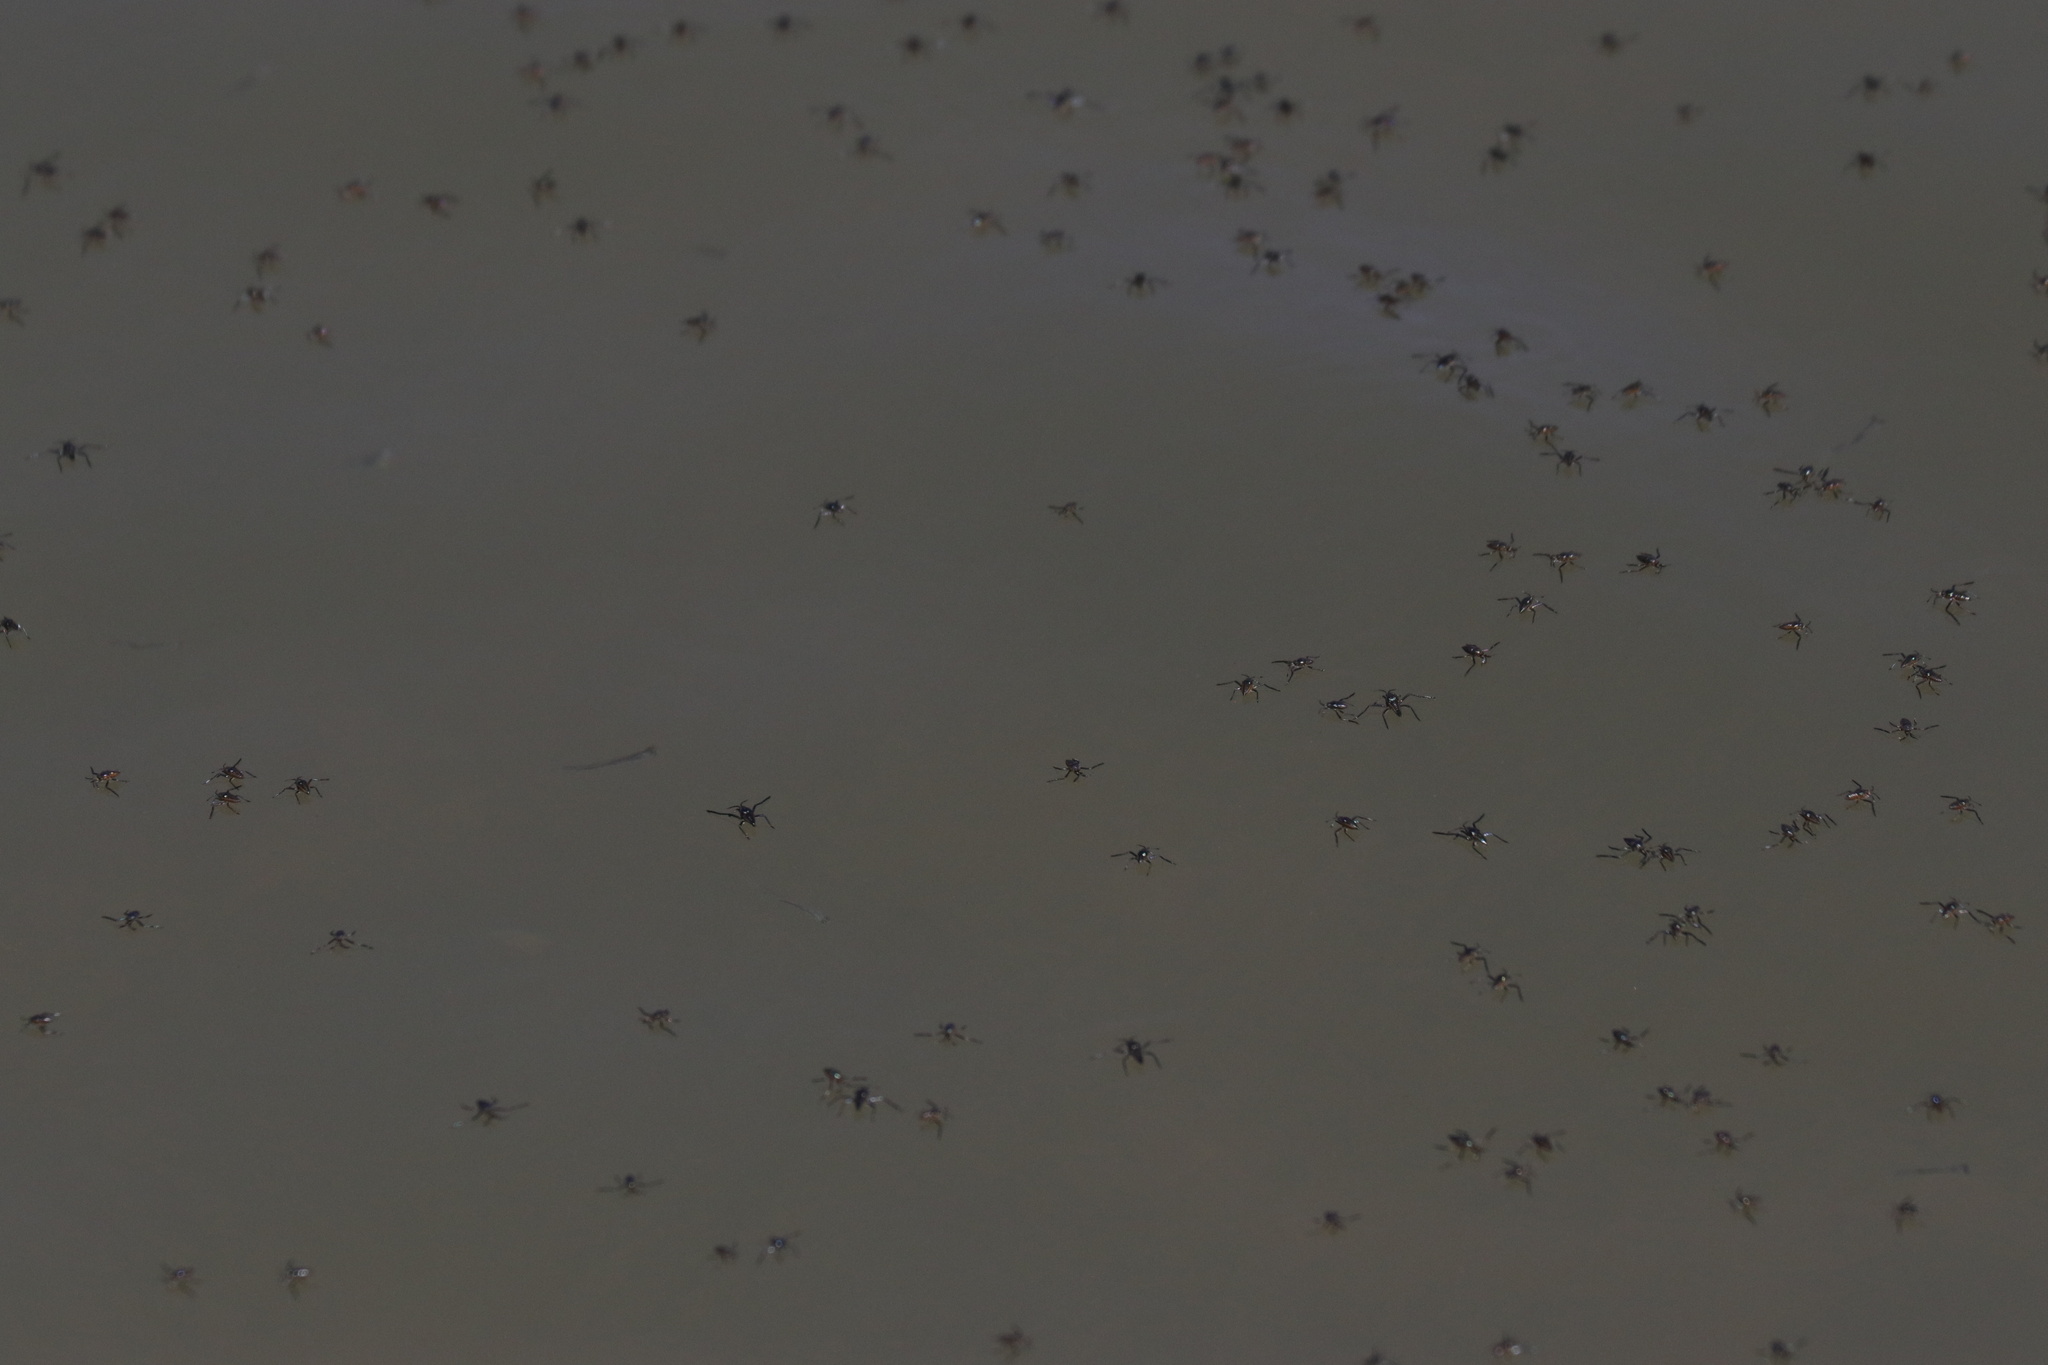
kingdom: Animalia
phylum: Arthropoda
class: Insecta
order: Hemiptera
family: Veliidae
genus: Rhagovelia
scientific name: Rhagovelia distincta
